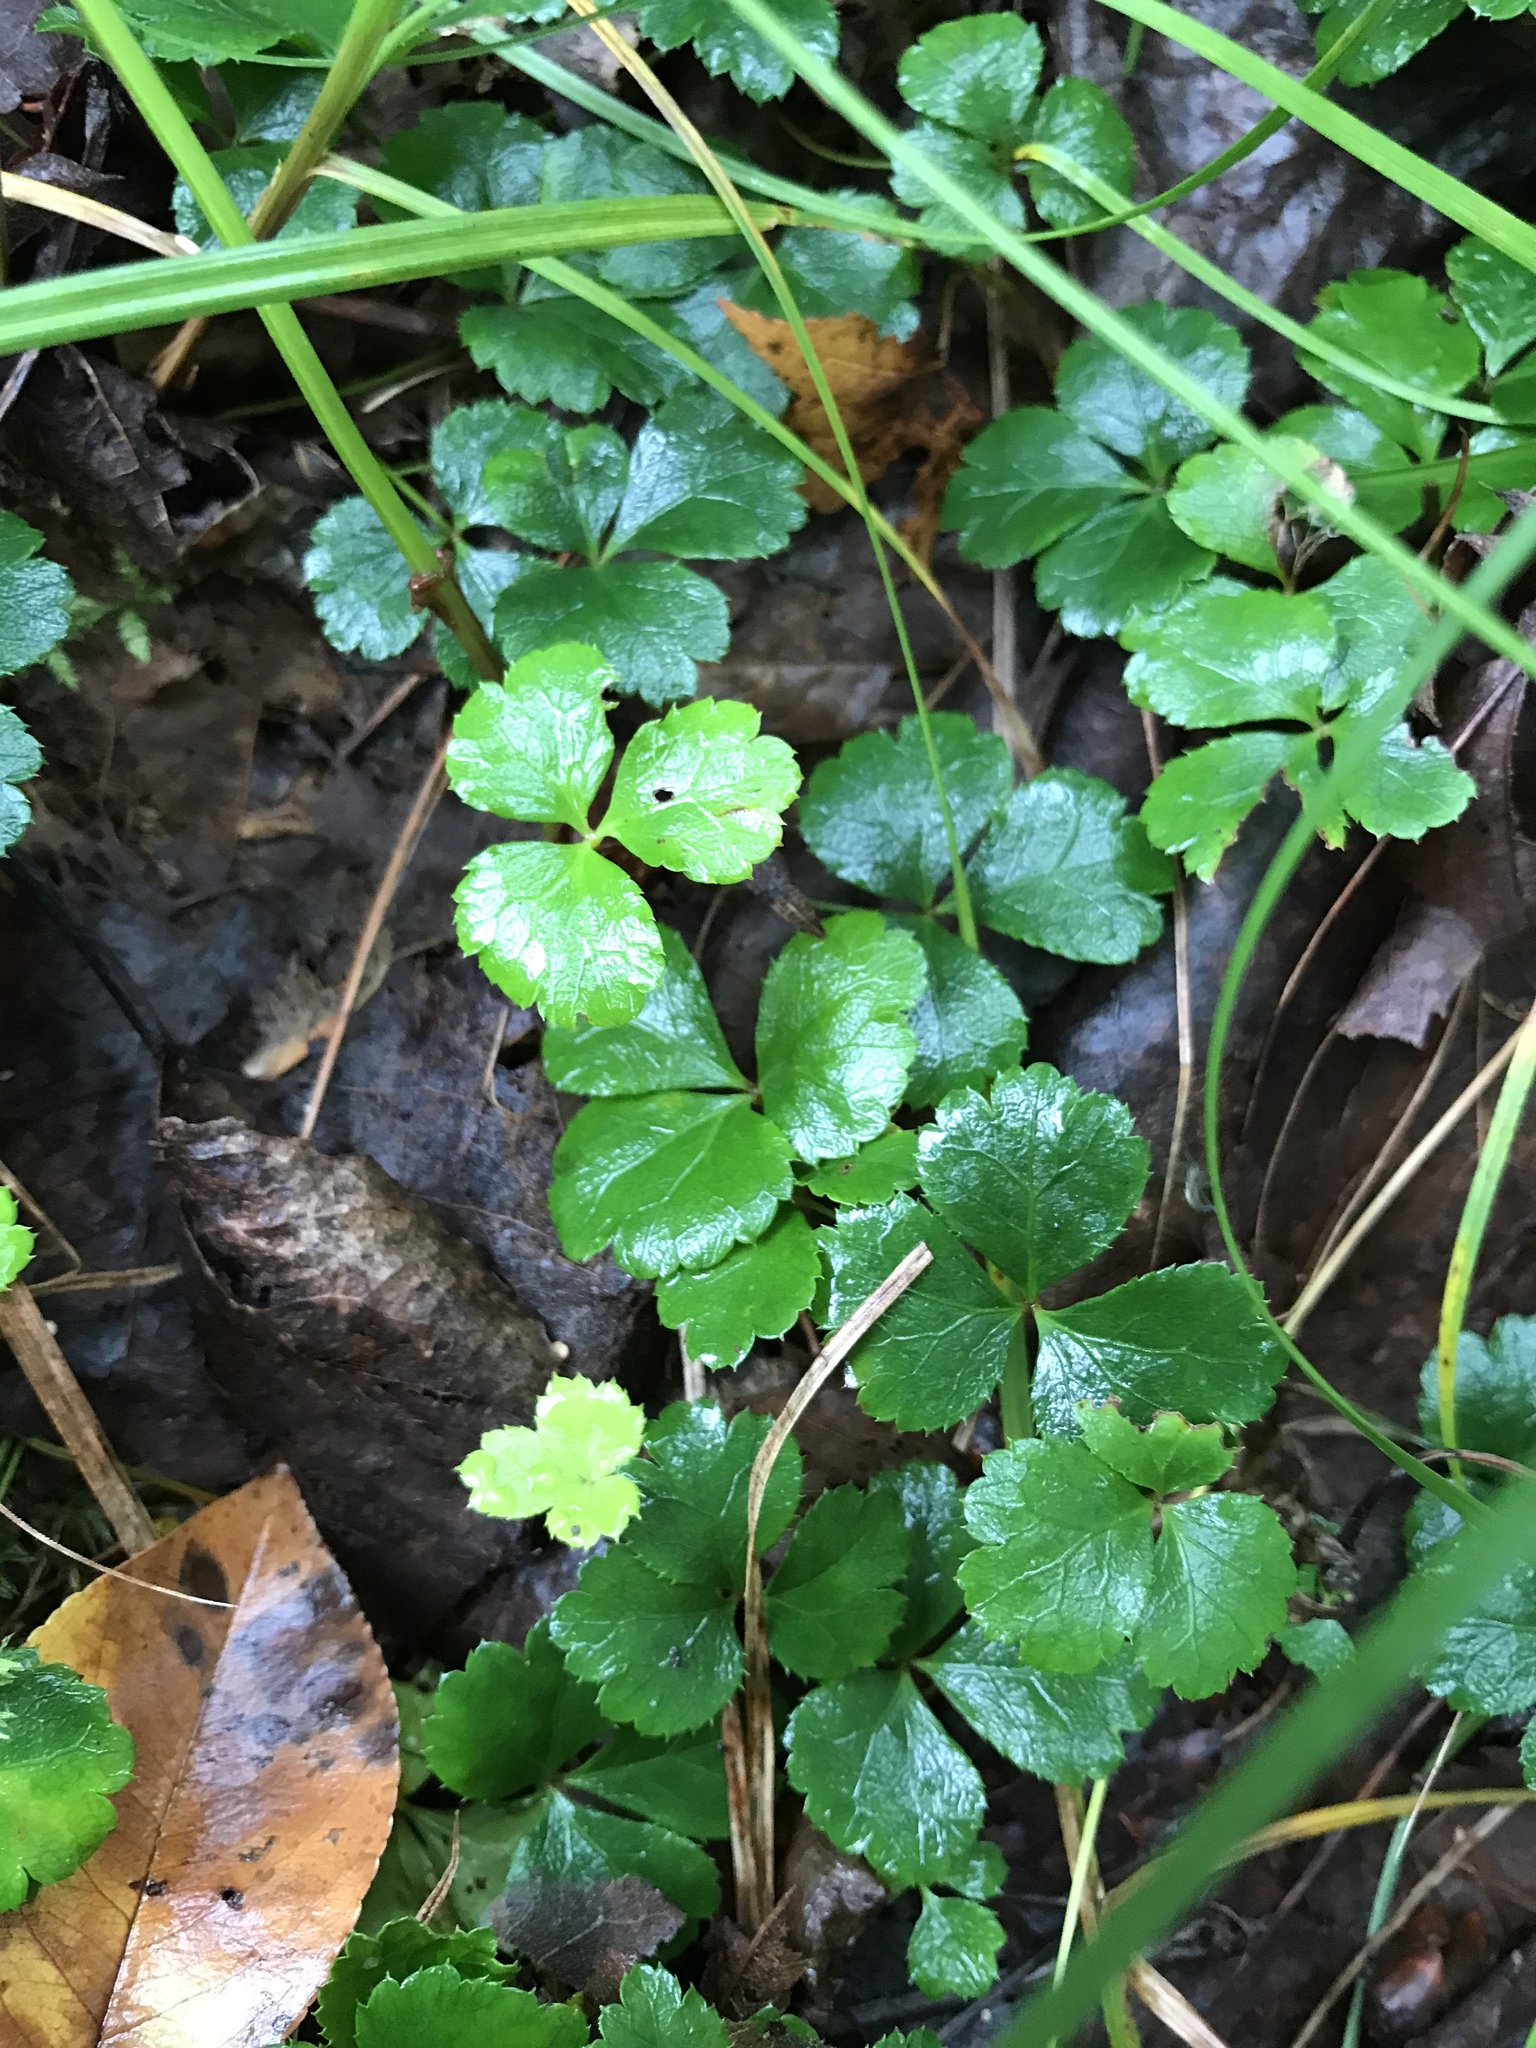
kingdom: Plantae
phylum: Tracheophyta
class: Magnoliopsida
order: Ranunculales
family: Ranunculaceae
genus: Coptis
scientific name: Coptis trifolia
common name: Canker-root
